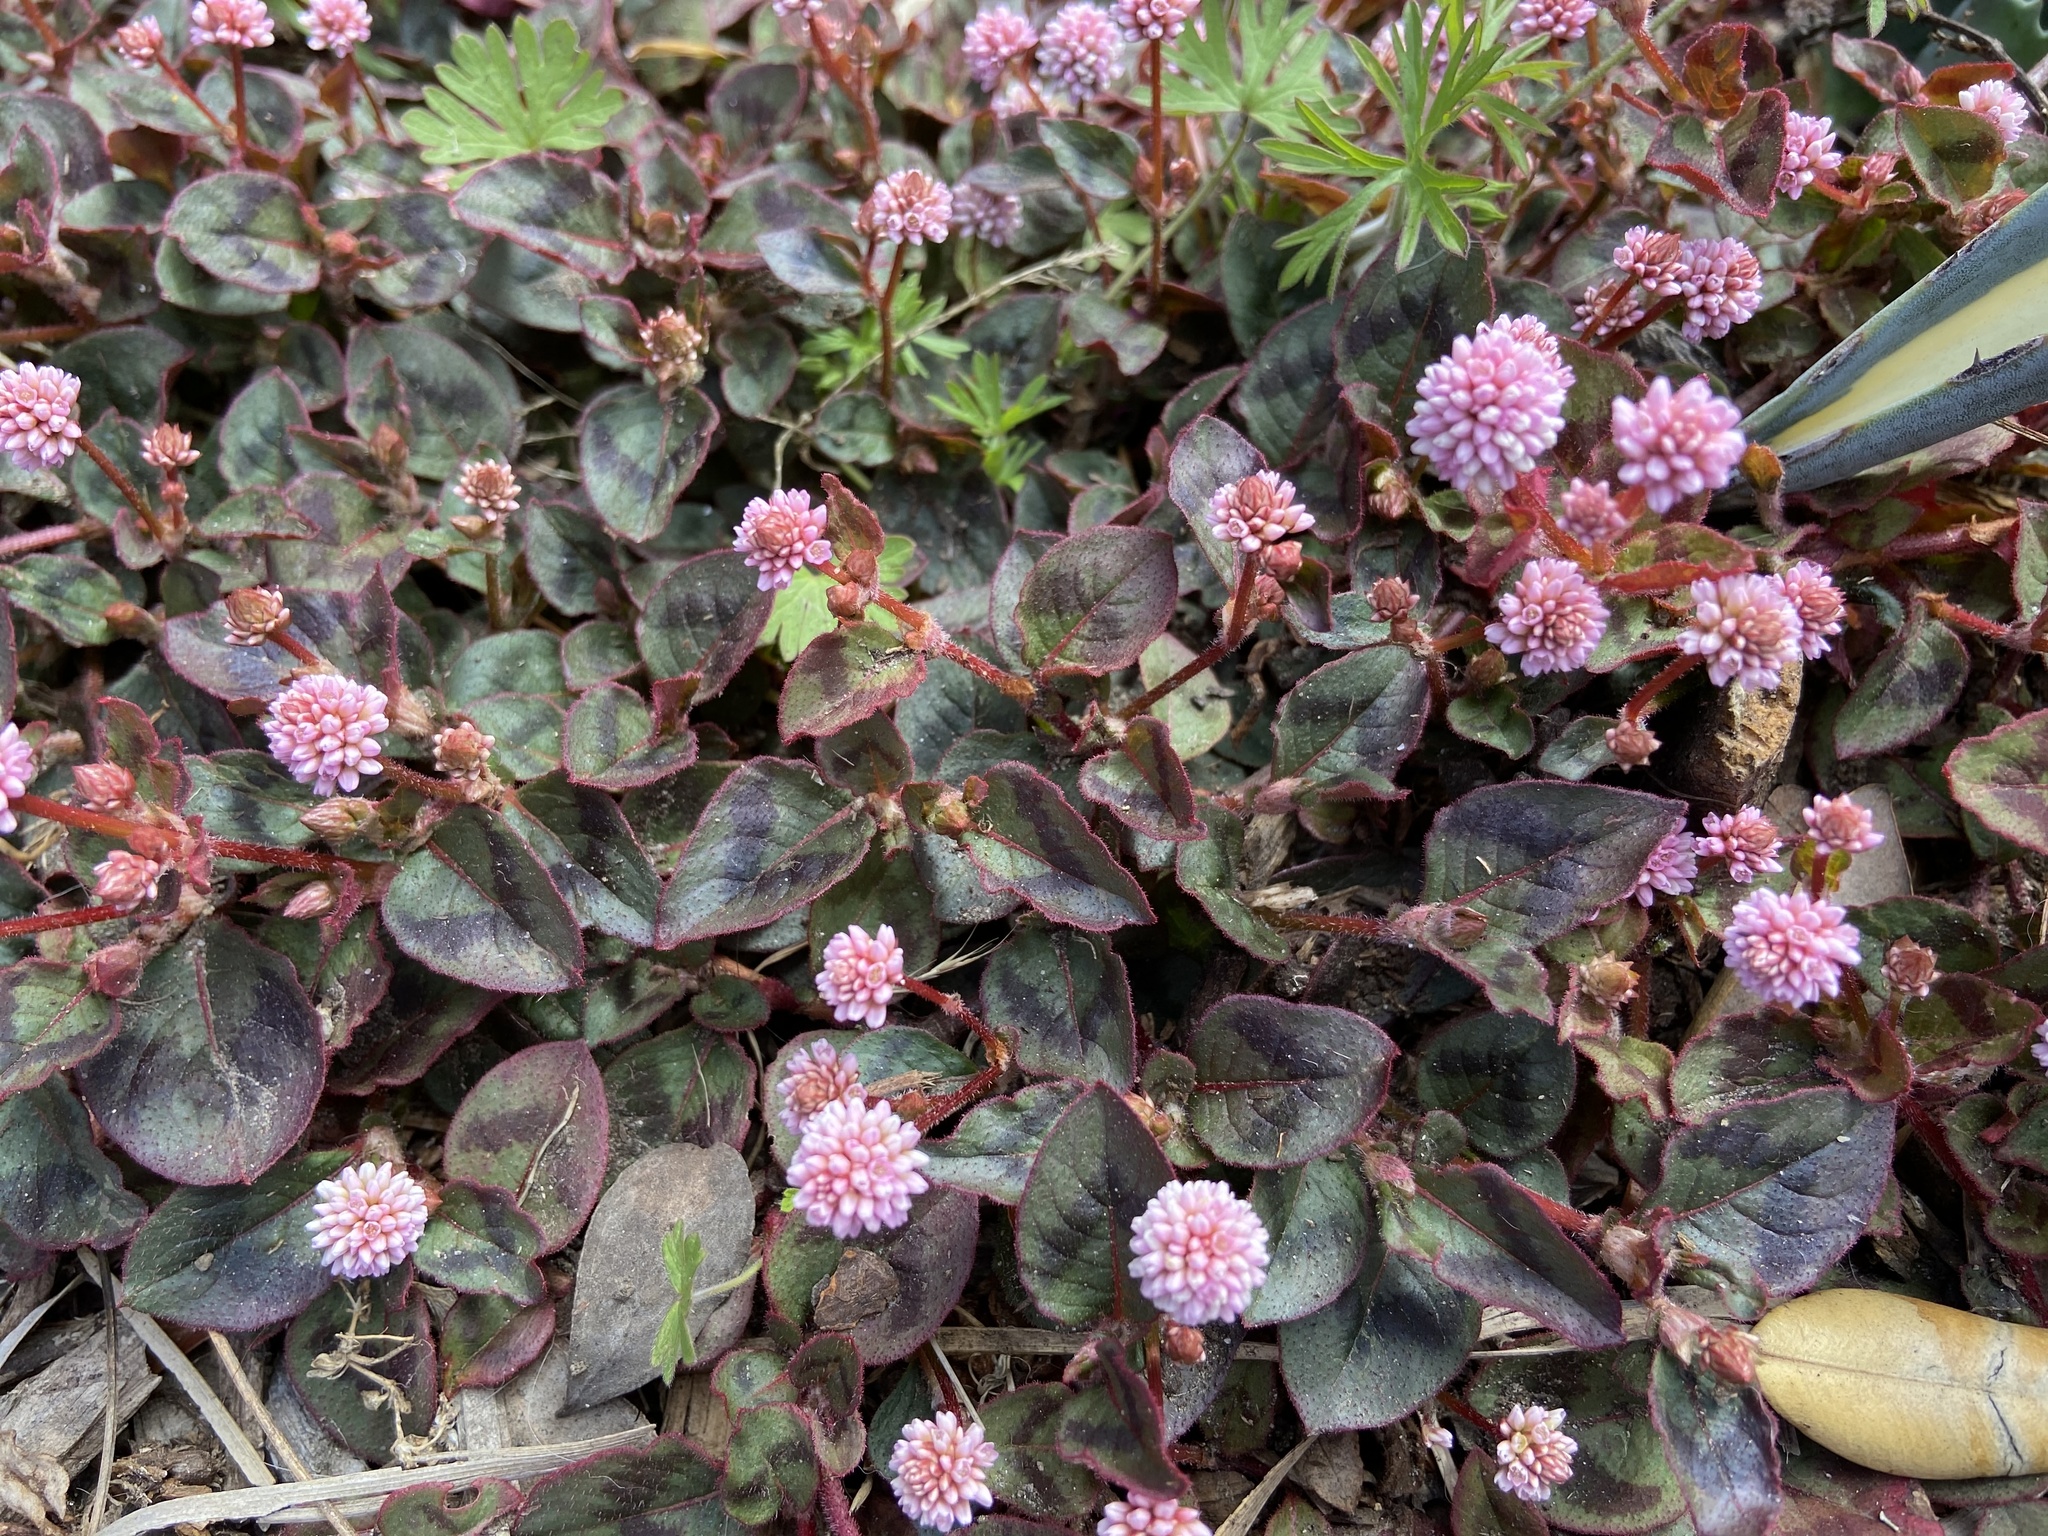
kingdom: Plantae
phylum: Tracheophyta
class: Magnoliopsida
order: Caryophyllales
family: Polygonaceae
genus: Persicaria
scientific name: Persicaria capitata
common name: Pinkhead smartweed
